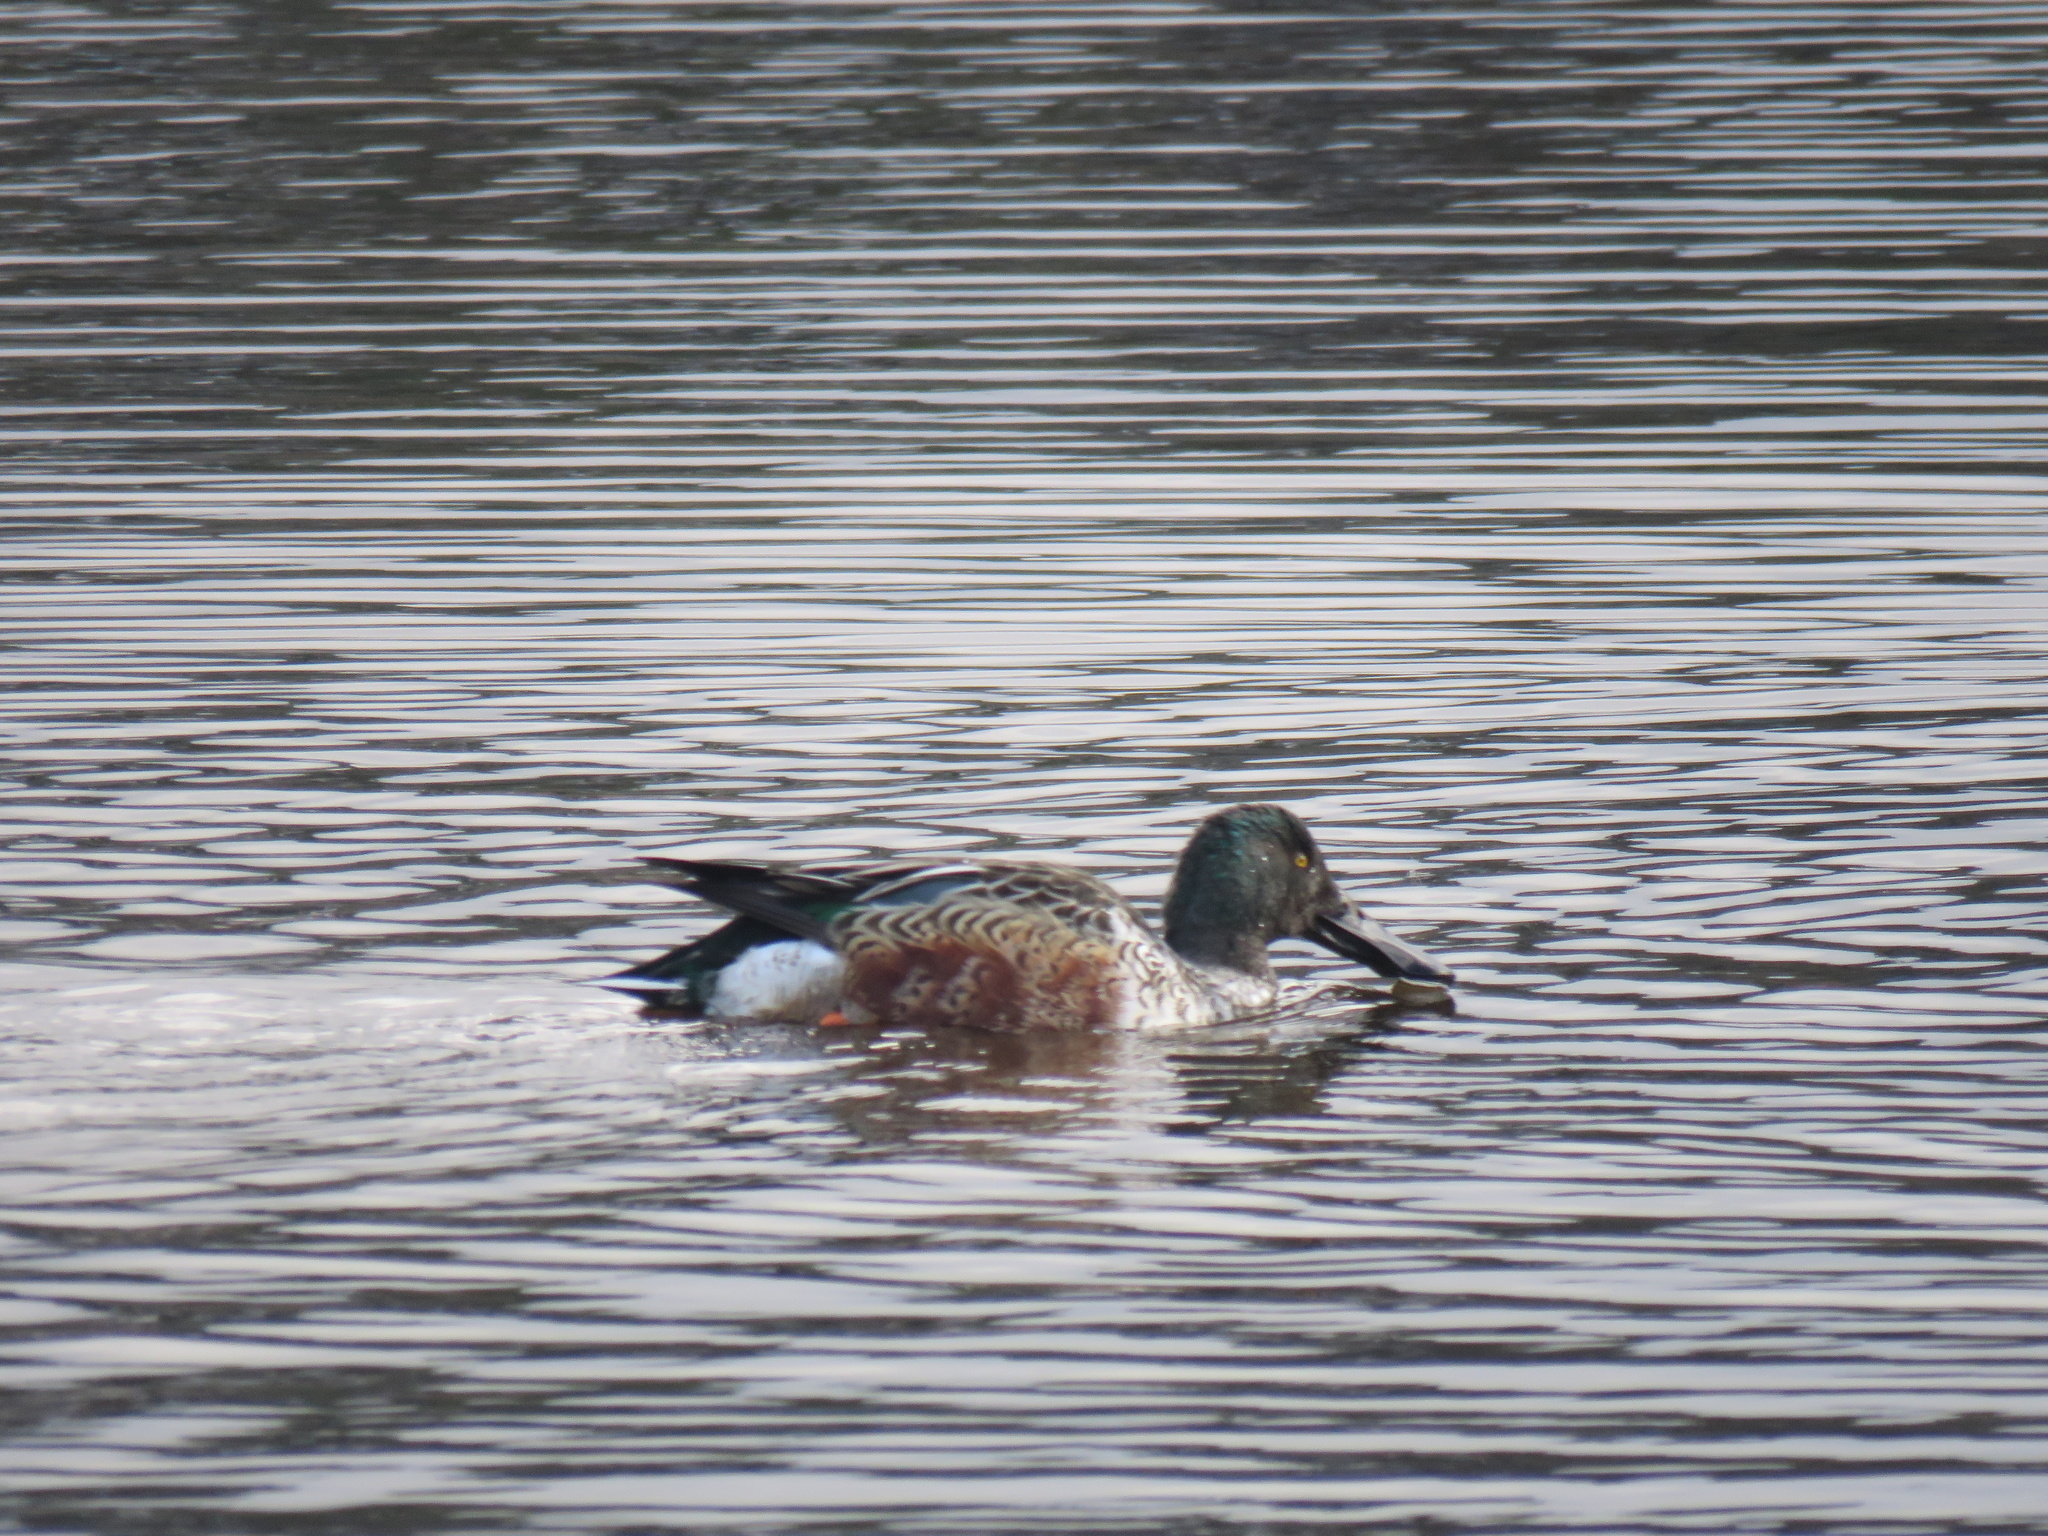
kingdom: Animalia
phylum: Chordata
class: Aves
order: Anseriformes
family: Anatidae
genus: Spatula
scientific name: Spatula clypeata
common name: Northern shoveler
